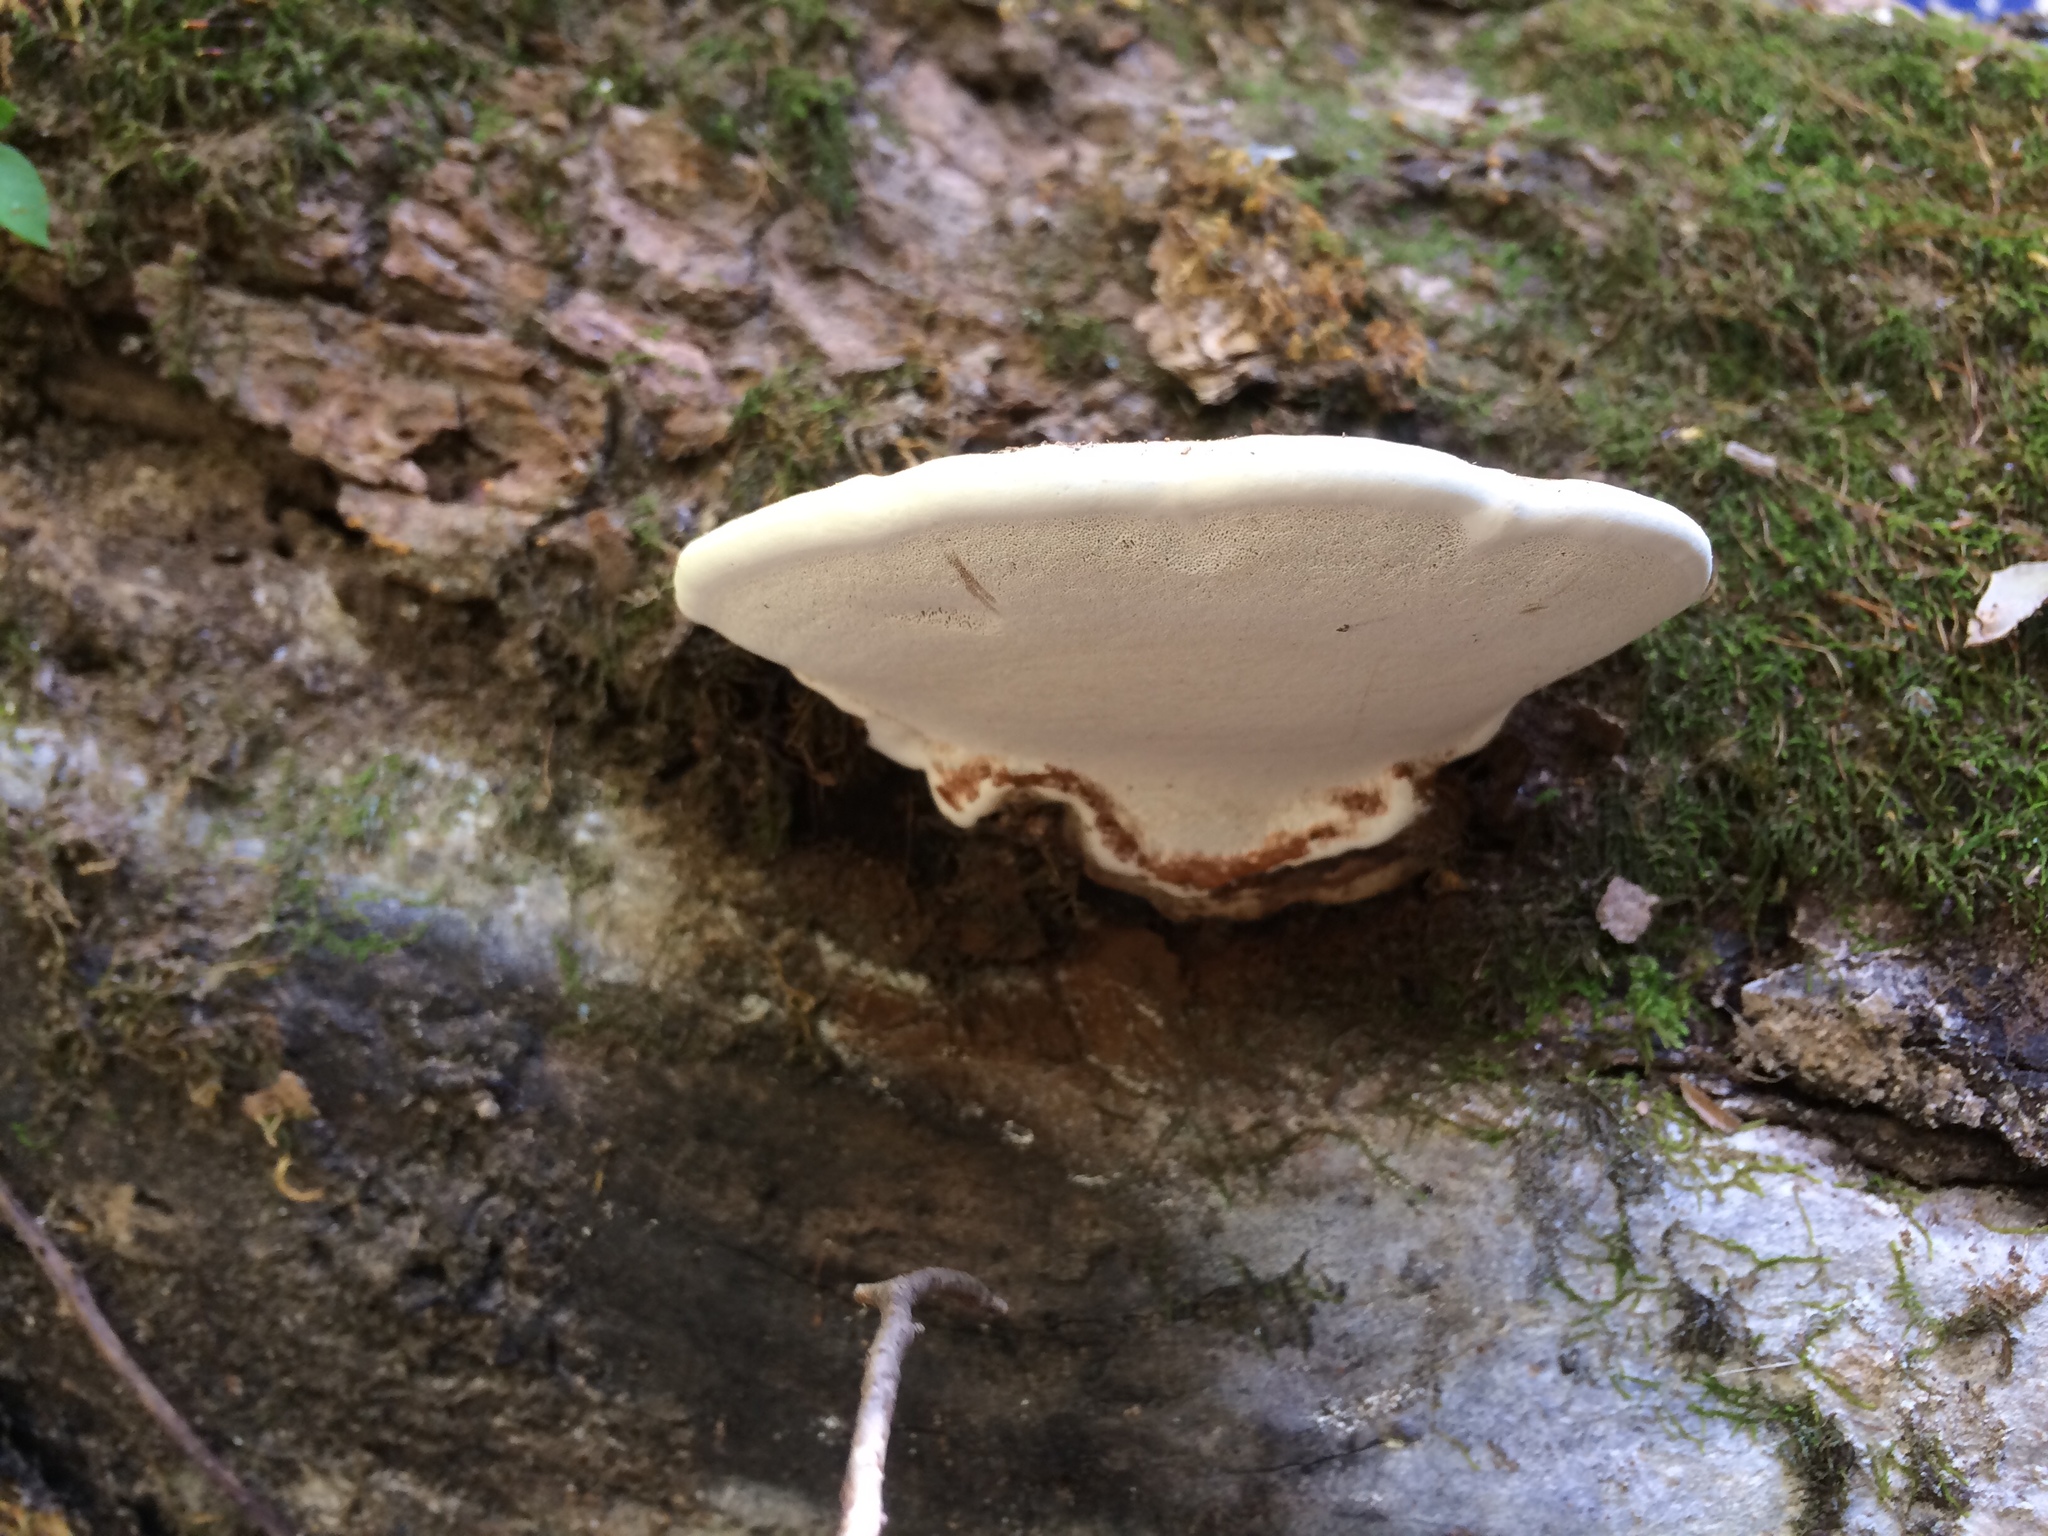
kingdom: Fungi
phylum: Basidiomycota
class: Agaricomycetes
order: Polyporales
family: Polyporaceae
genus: Ganoderma
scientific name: Ganoderma applanatum
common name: Artist's bracket
